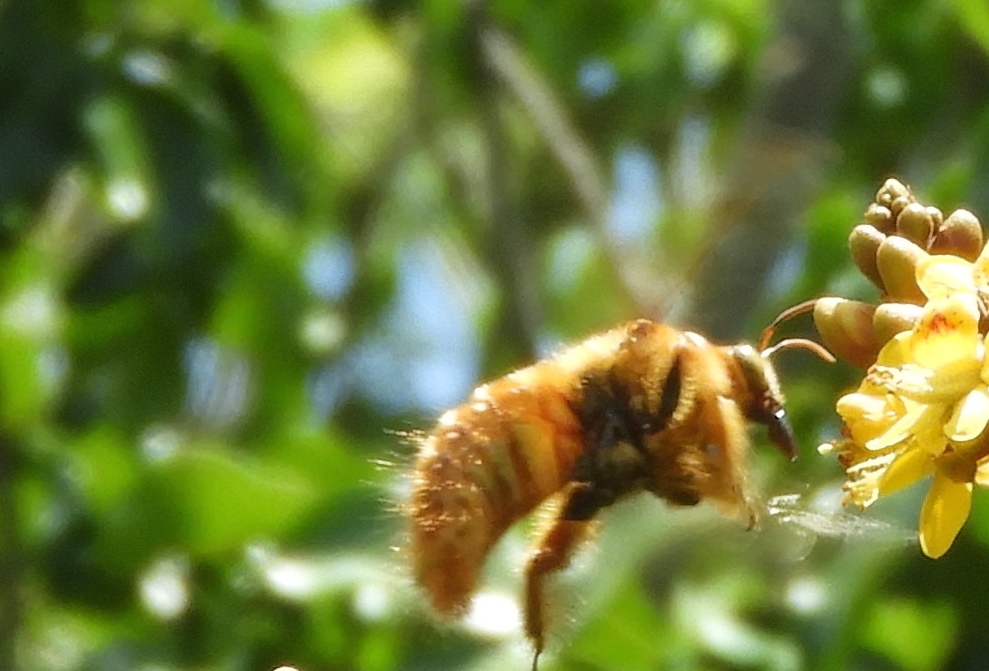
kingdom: Animalia
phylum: Arthropoda
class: Insecta
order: Hymenoptera
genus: Neoxylocopa
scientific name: Neoxylocopa
